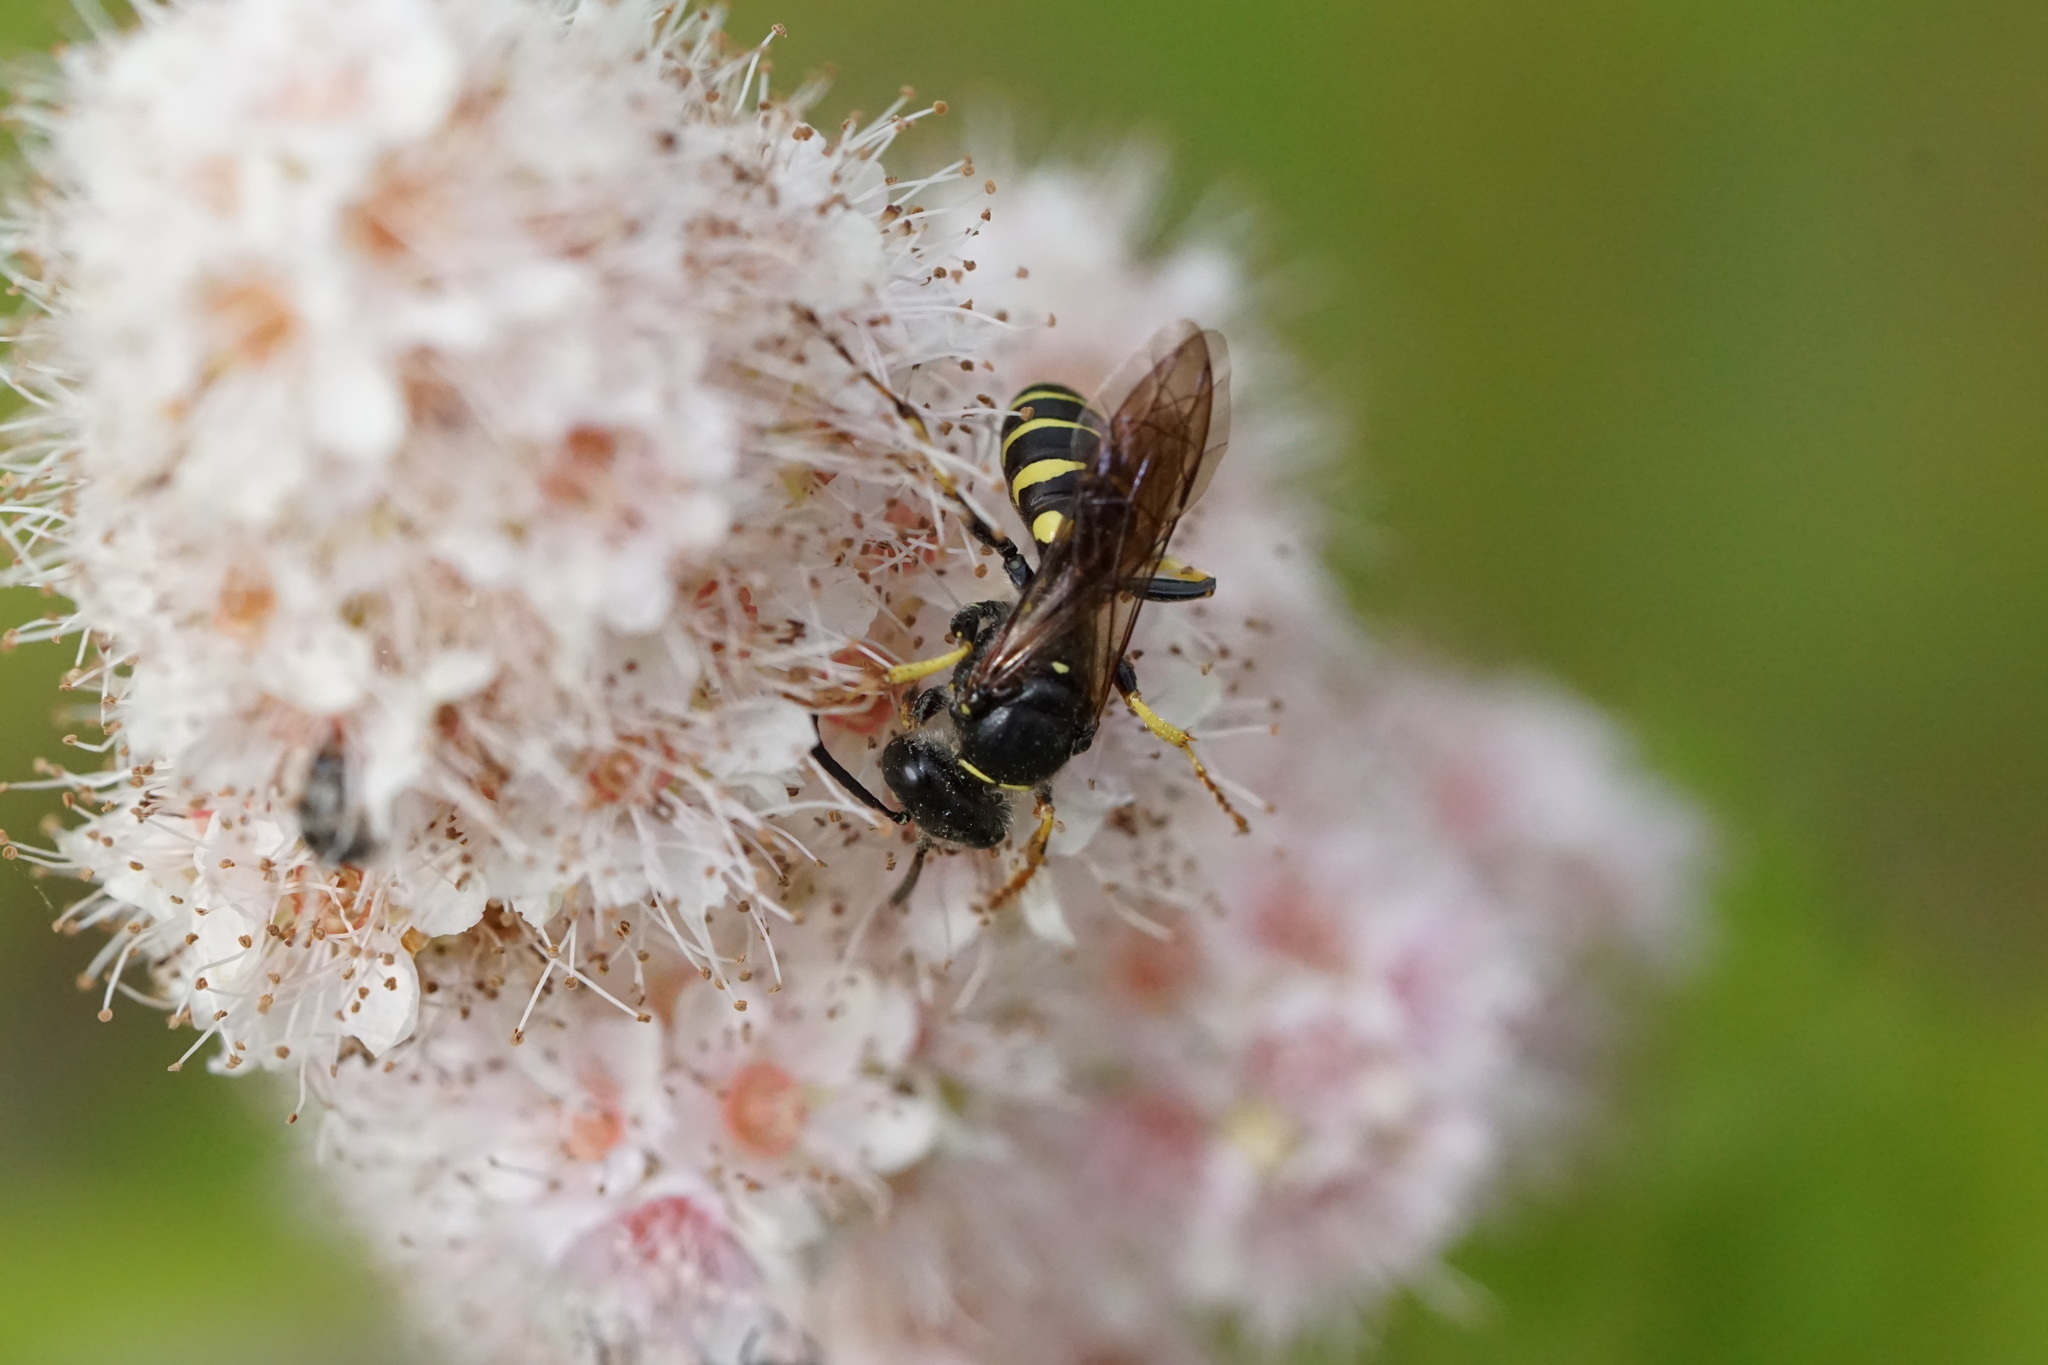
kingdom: Animalia
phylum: Arthropoda
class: Insecta
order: Hymenoptera
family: Crabronidae
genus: Aphilanthops
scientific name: Aphilanthops frigidus
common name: Queen ant kidnapper
